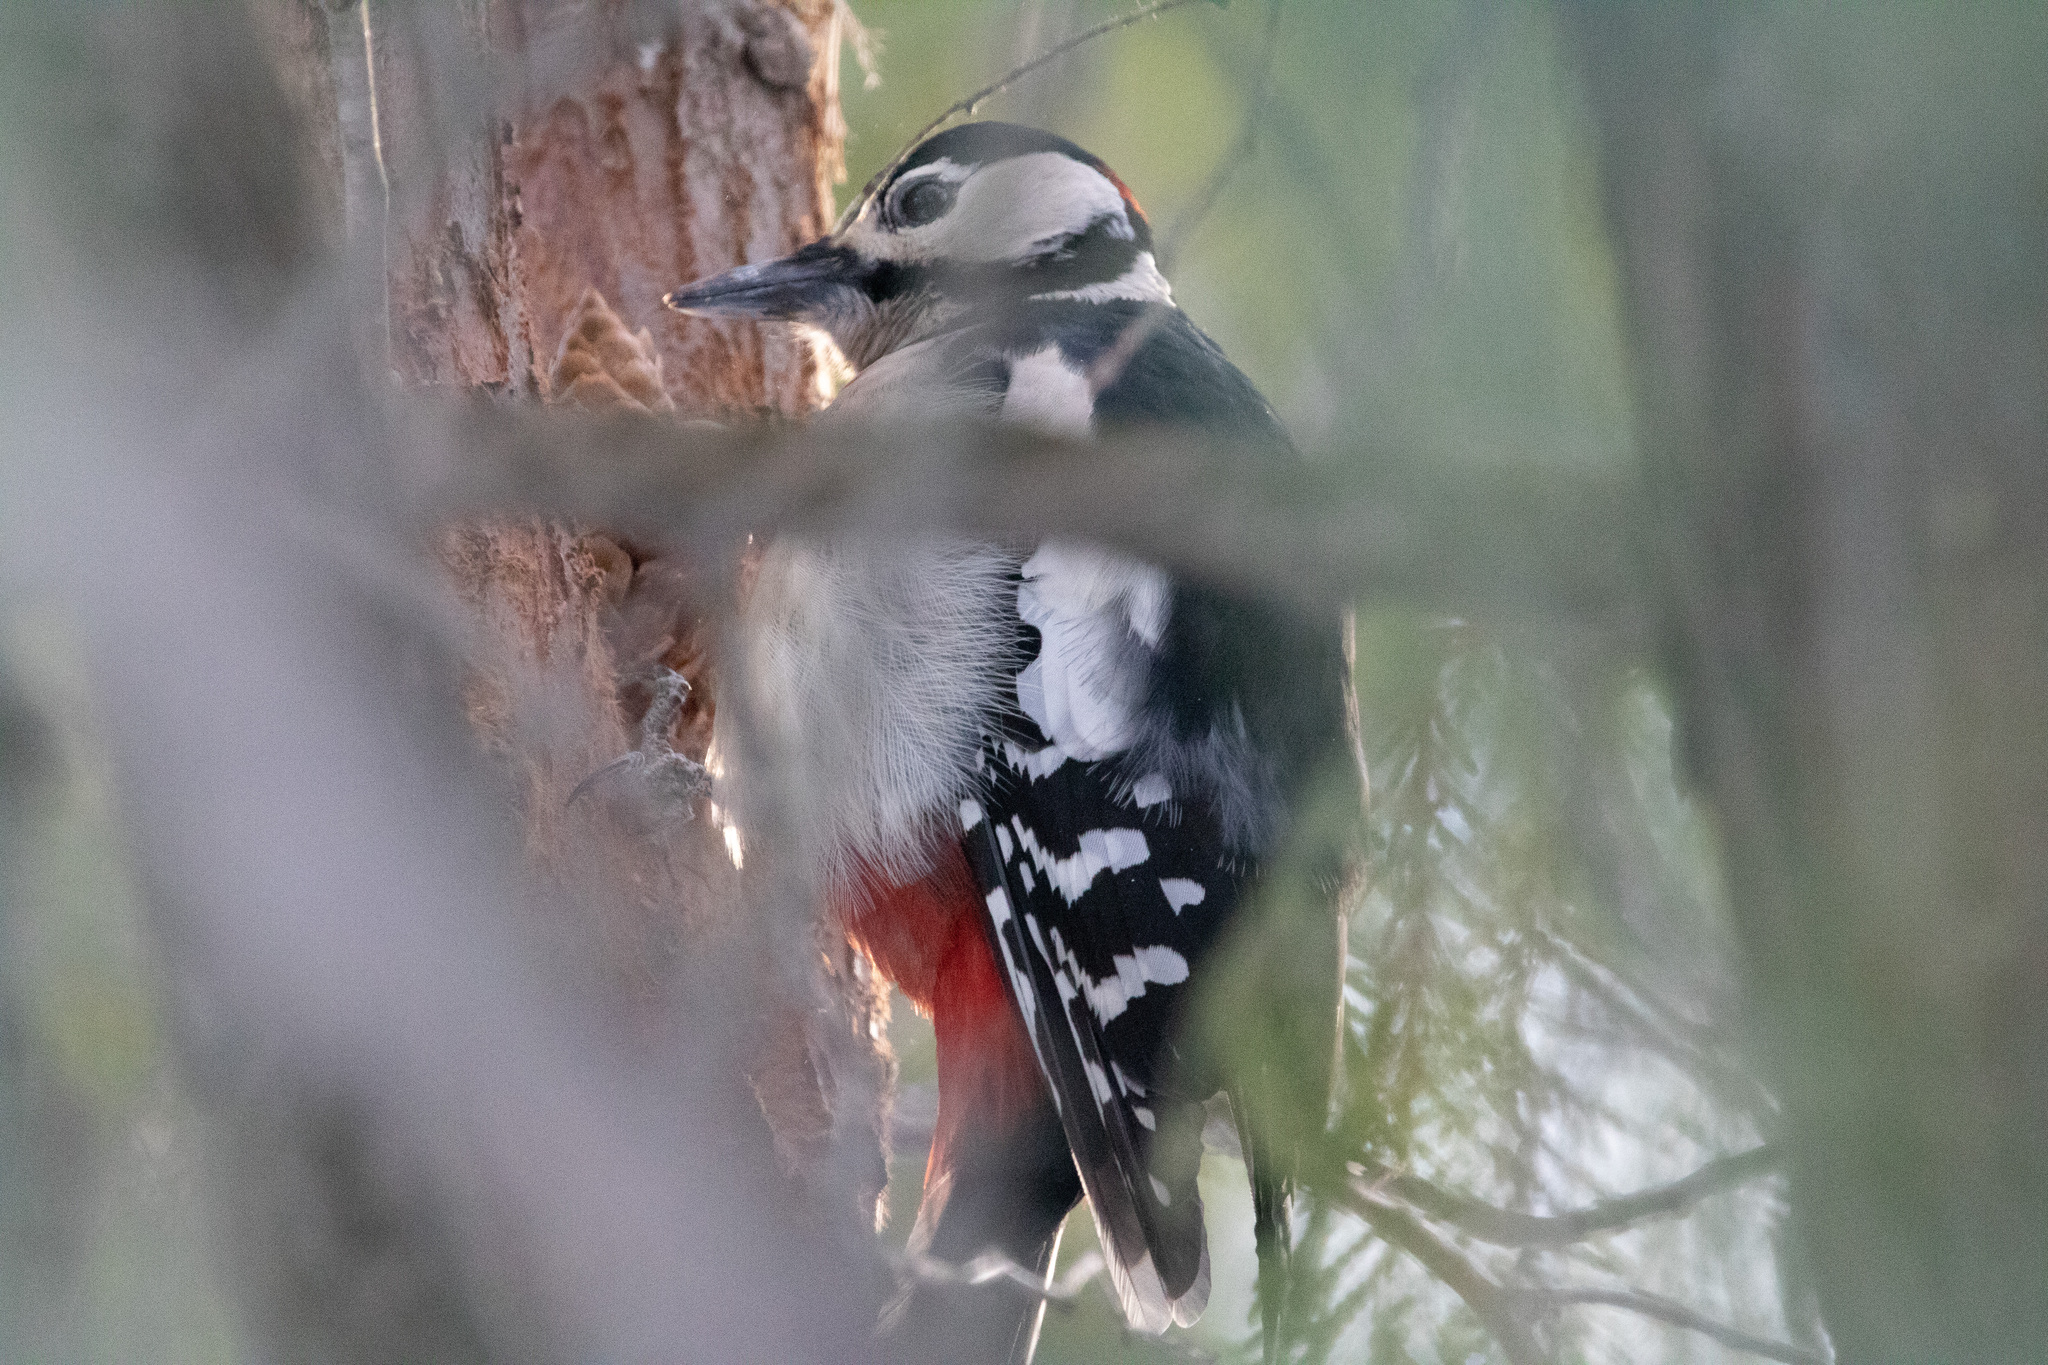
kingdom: Animalia
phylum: Chordata
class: Aves
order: Piciformes
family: Picidae
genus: Dendrocopos
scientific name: Dendrocopos major
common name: Great spotted woodpecker
